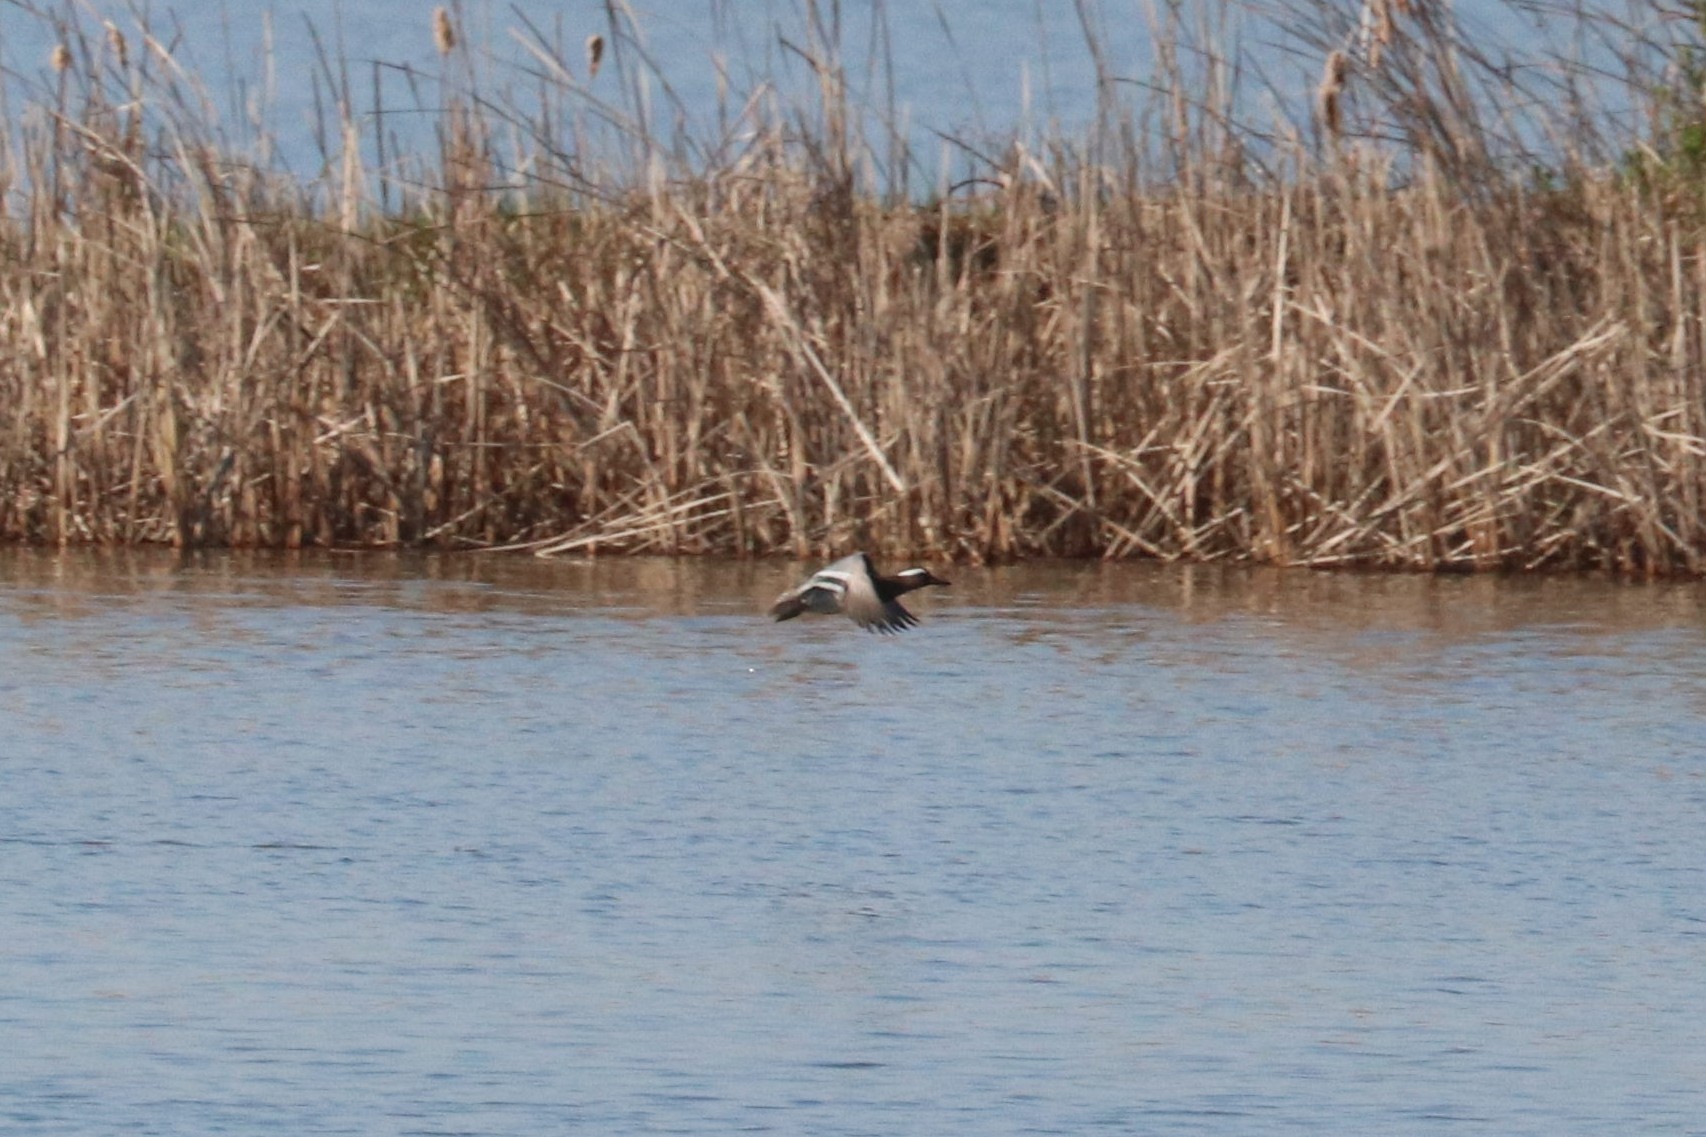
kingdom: Animalia
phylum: Chordata
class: Aves
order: Anseriformes
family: Anatidae
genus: Spatula
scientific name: Spatula querquedula
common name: Garganey
